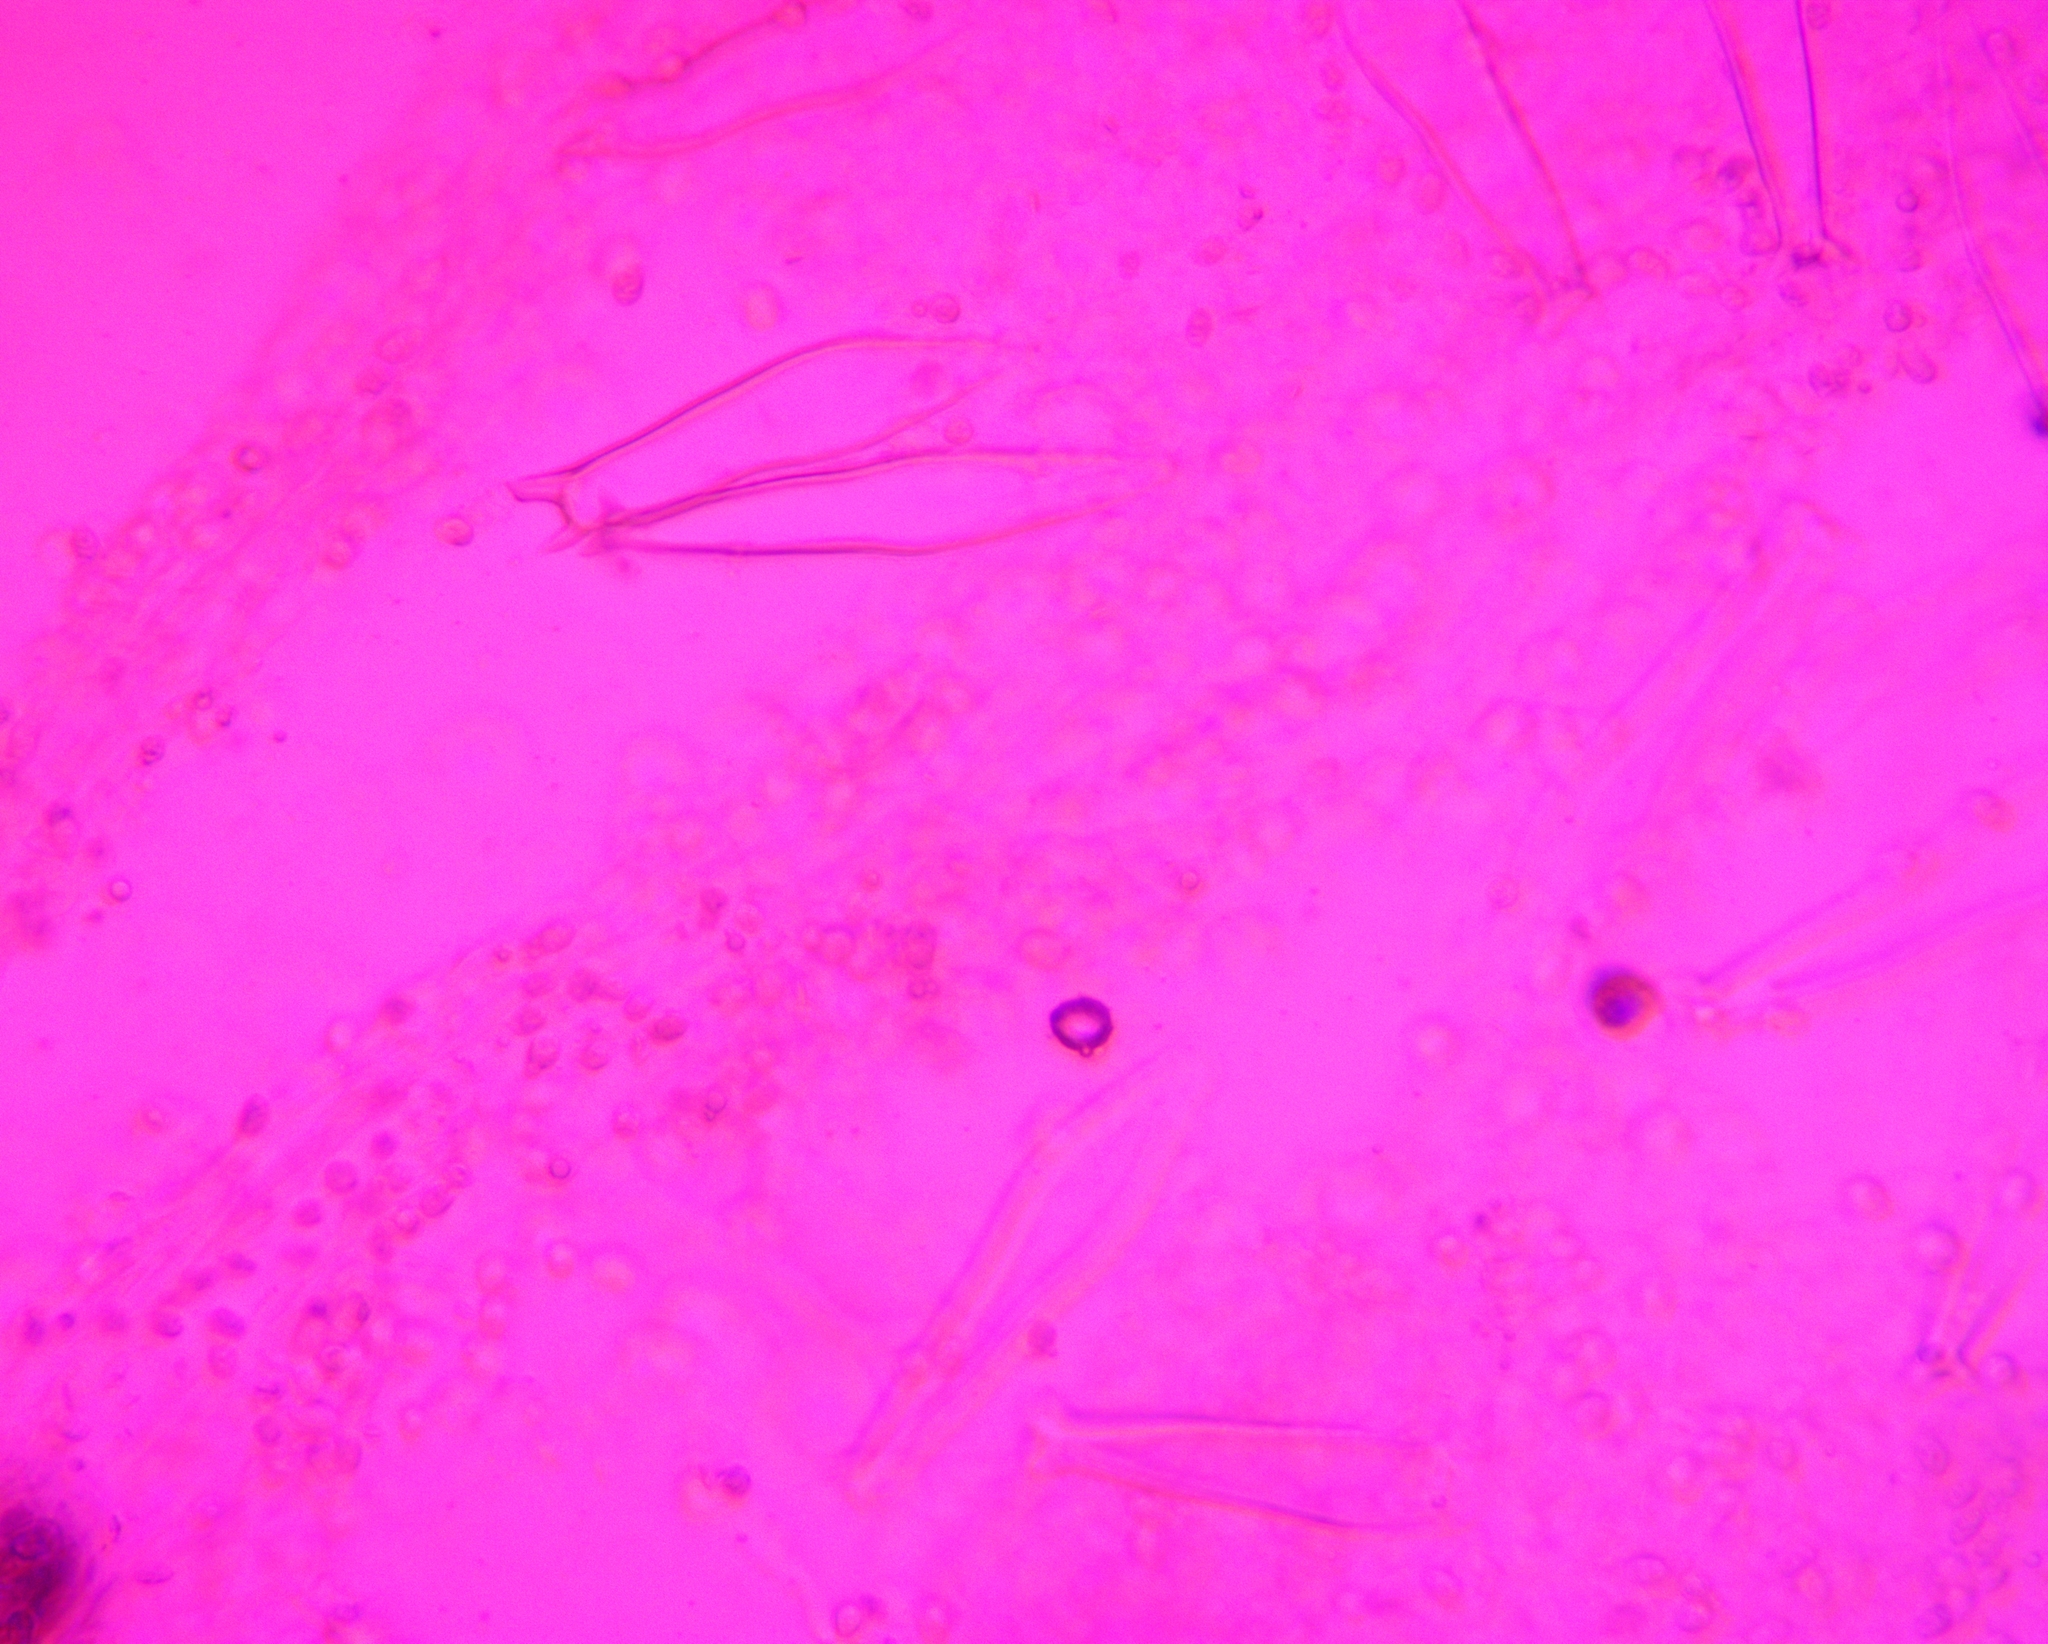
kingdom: Fungi
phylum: Basidiomycota
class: Agaricomycetes
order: Agaricales
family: Pluteaceae
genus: Pluteus
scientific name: Pluteus petasatus
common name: Scaly shield
